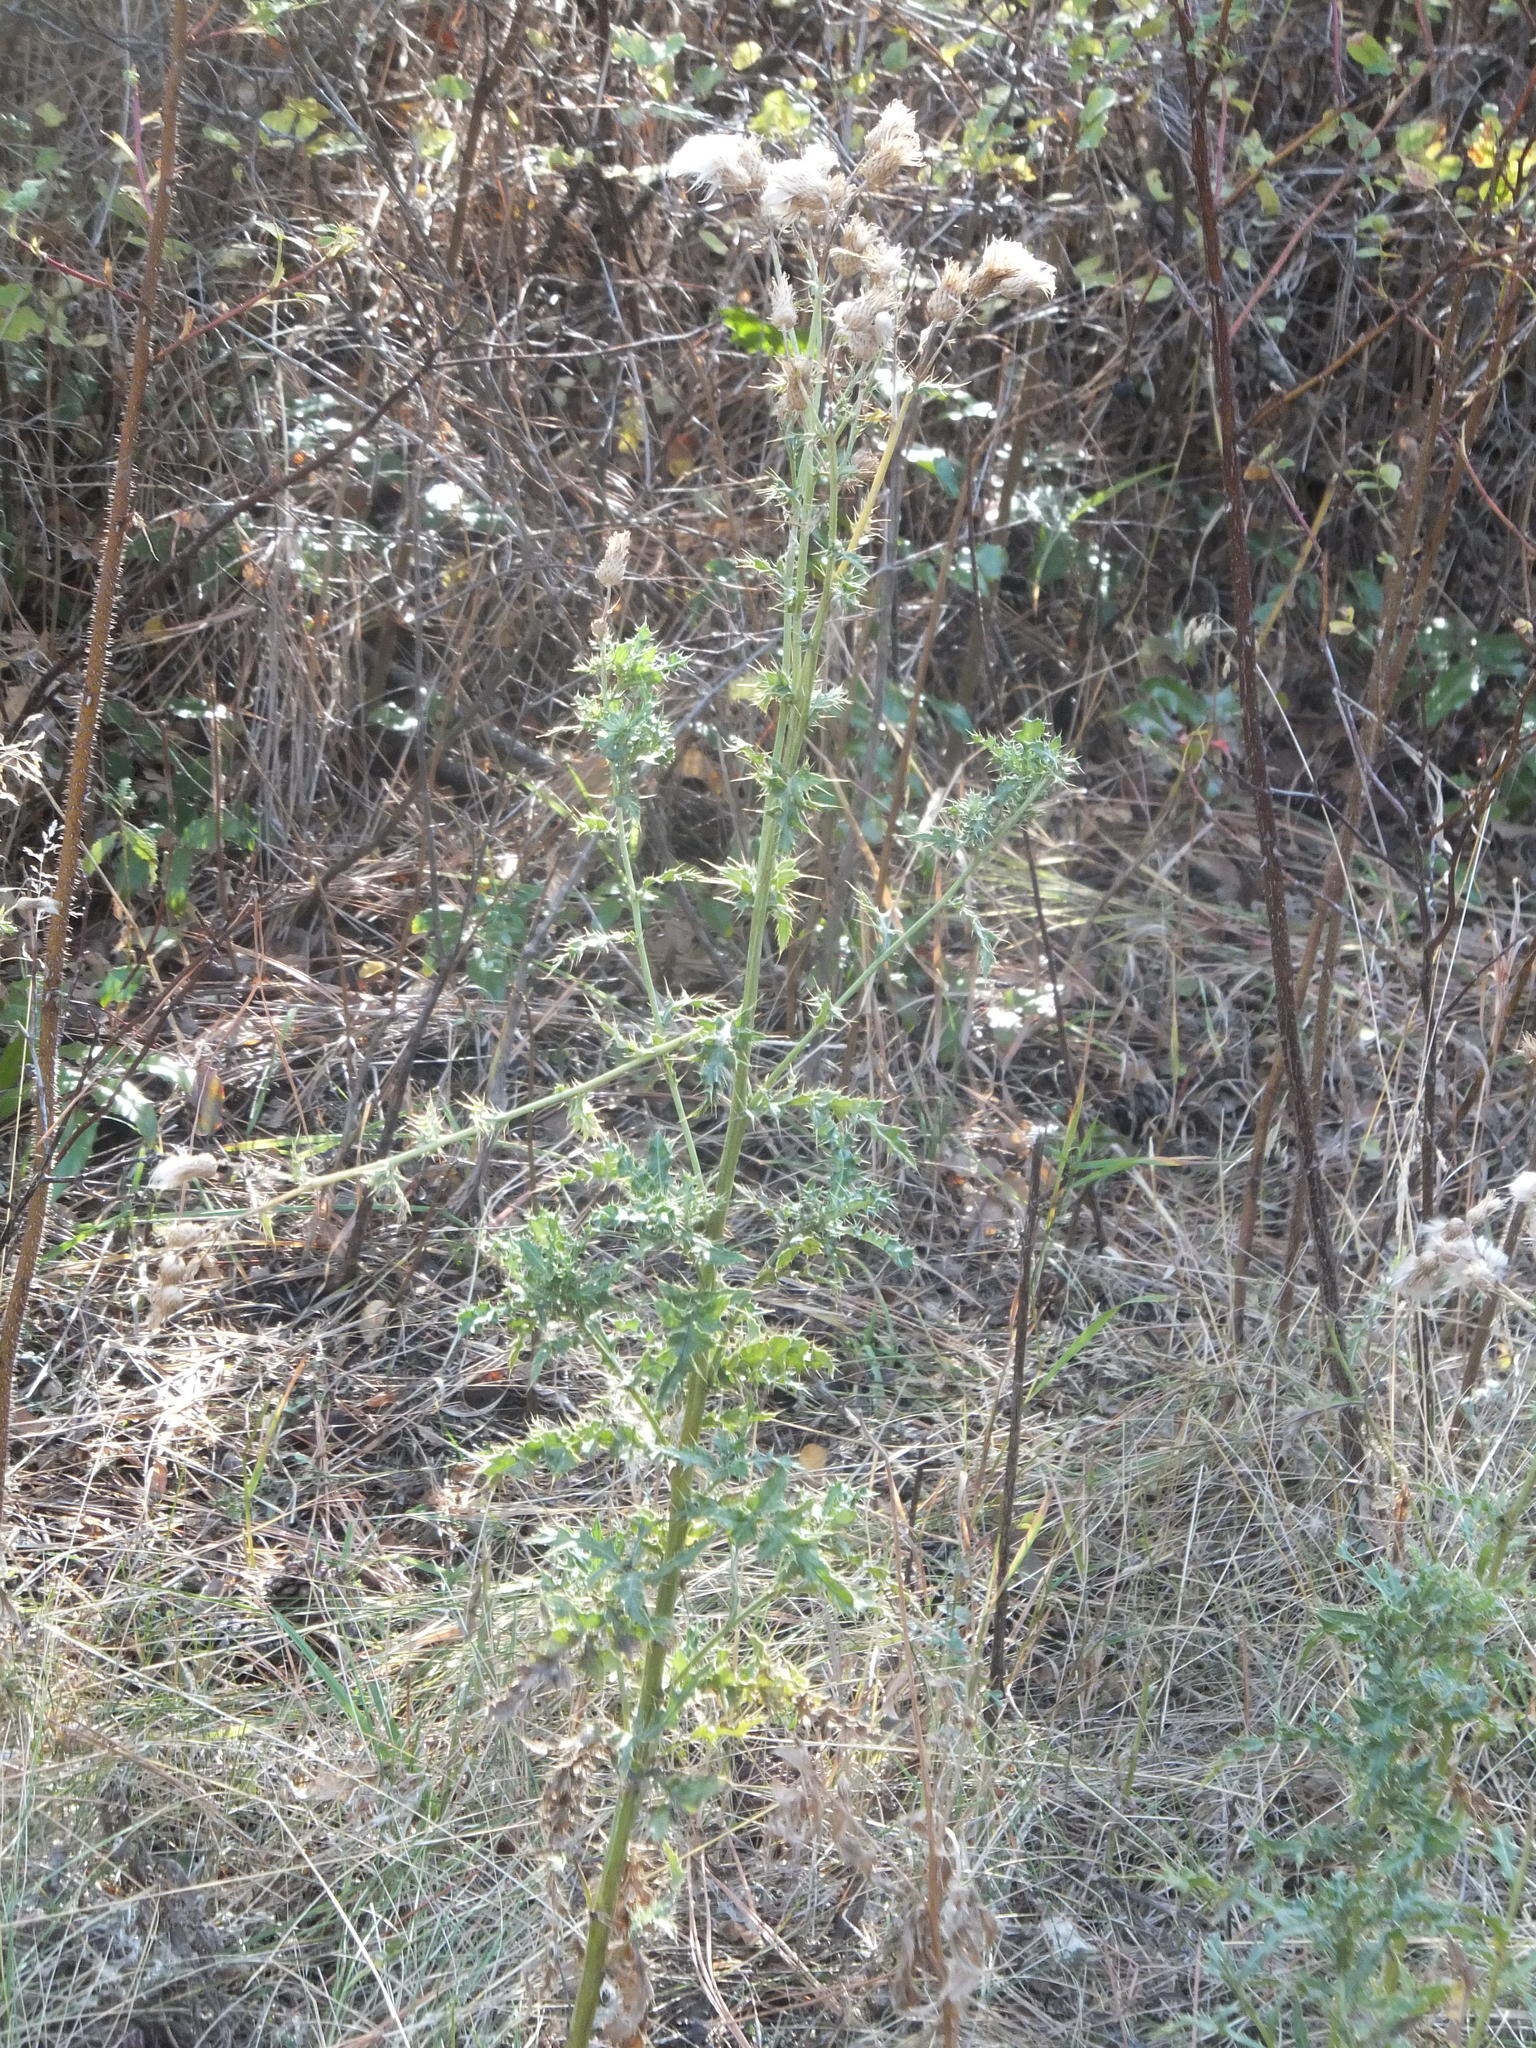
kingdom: Plantae
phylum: Tracheophyta
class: Magnoliopsida
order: Asterales
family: Asteraceae
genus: Cirsium
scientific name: Cirsium arvense
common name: Creeping thistle
